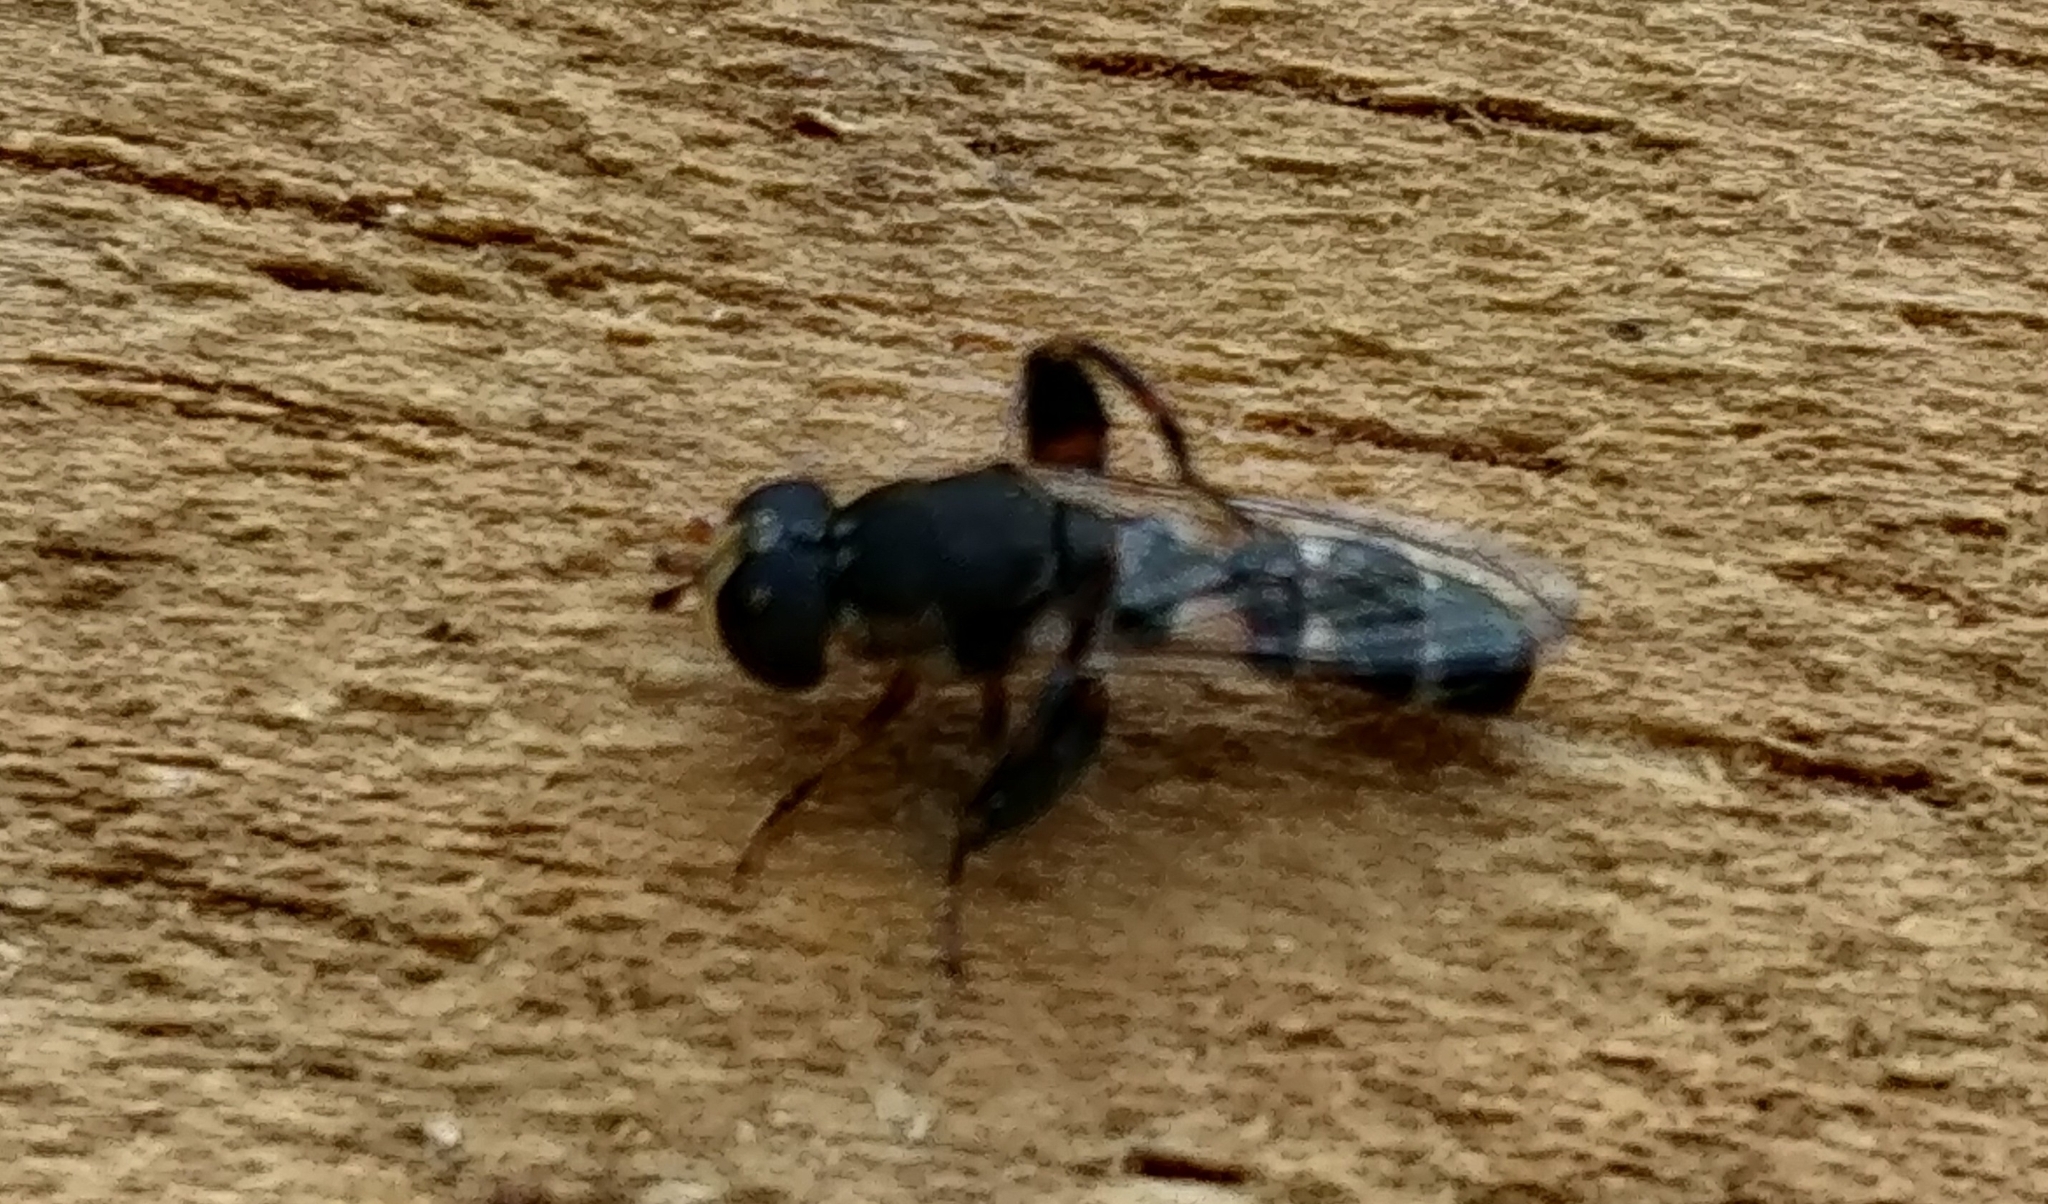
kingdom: Animalia
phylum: Arthropoda
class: Insecta
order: Diptera
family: Syrphidae
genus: Syritta
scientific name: Syritta pipiens
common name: Hover fly
